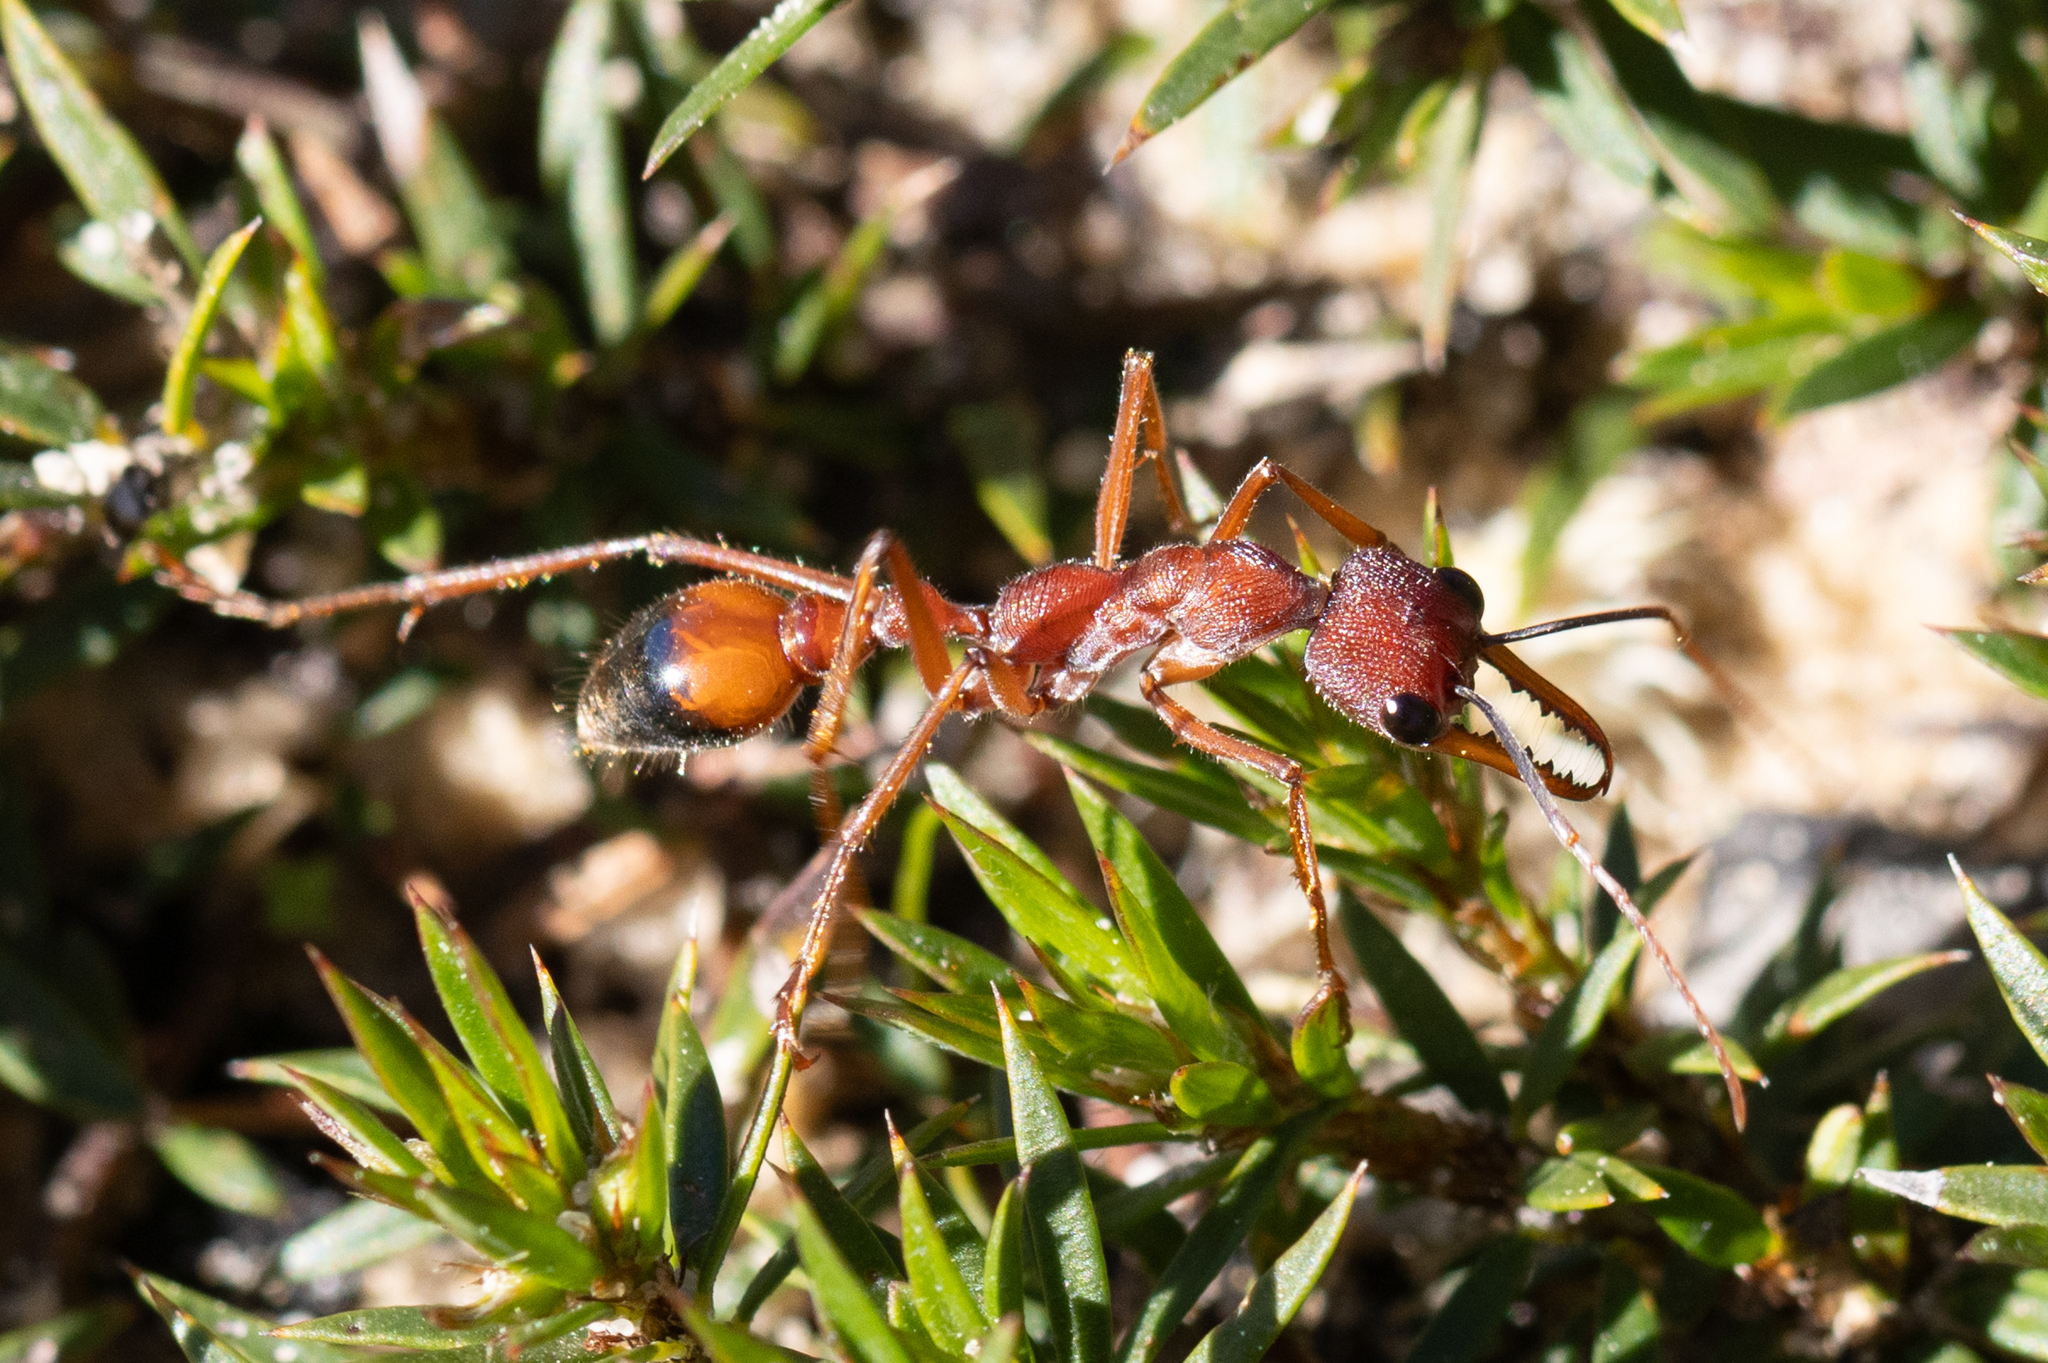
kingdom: Animalia
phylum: Arthropoda
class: Insecta
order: Hymenoptera
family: Formicidae
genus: Myrmecia
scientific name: Myrmecia nigriscapa
